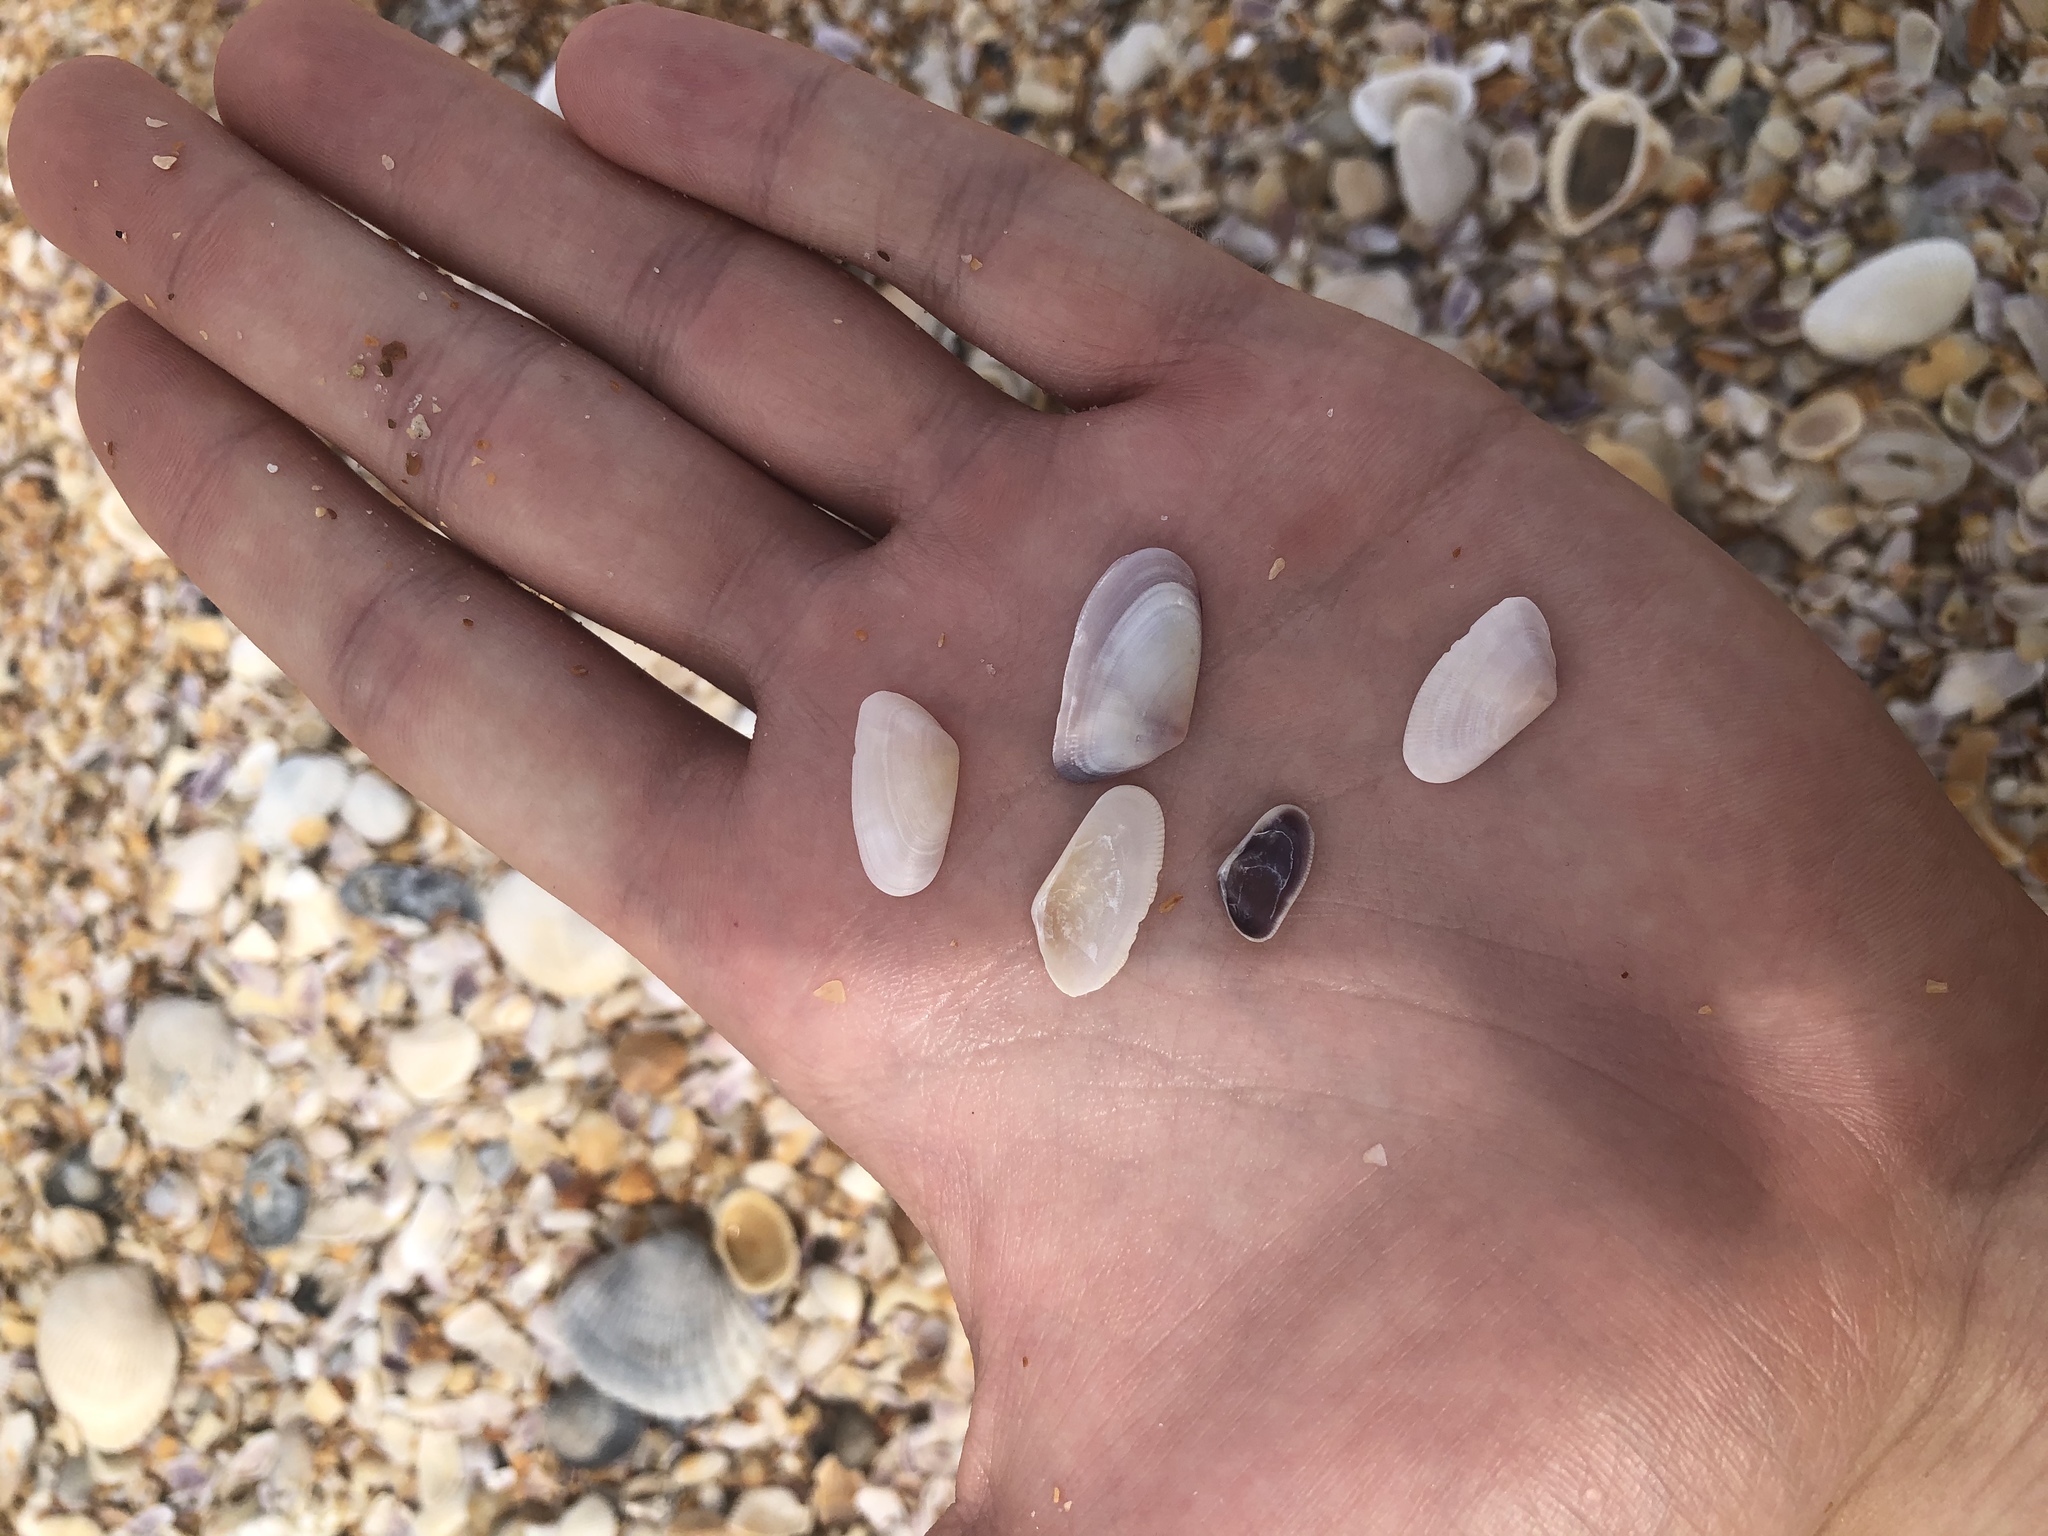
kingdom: Animalia
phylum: Mollusca
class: Bivalvia
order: Cardiida
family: Donacidae
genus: Donax
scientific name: Donax variabilis
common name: Butterfly shell
